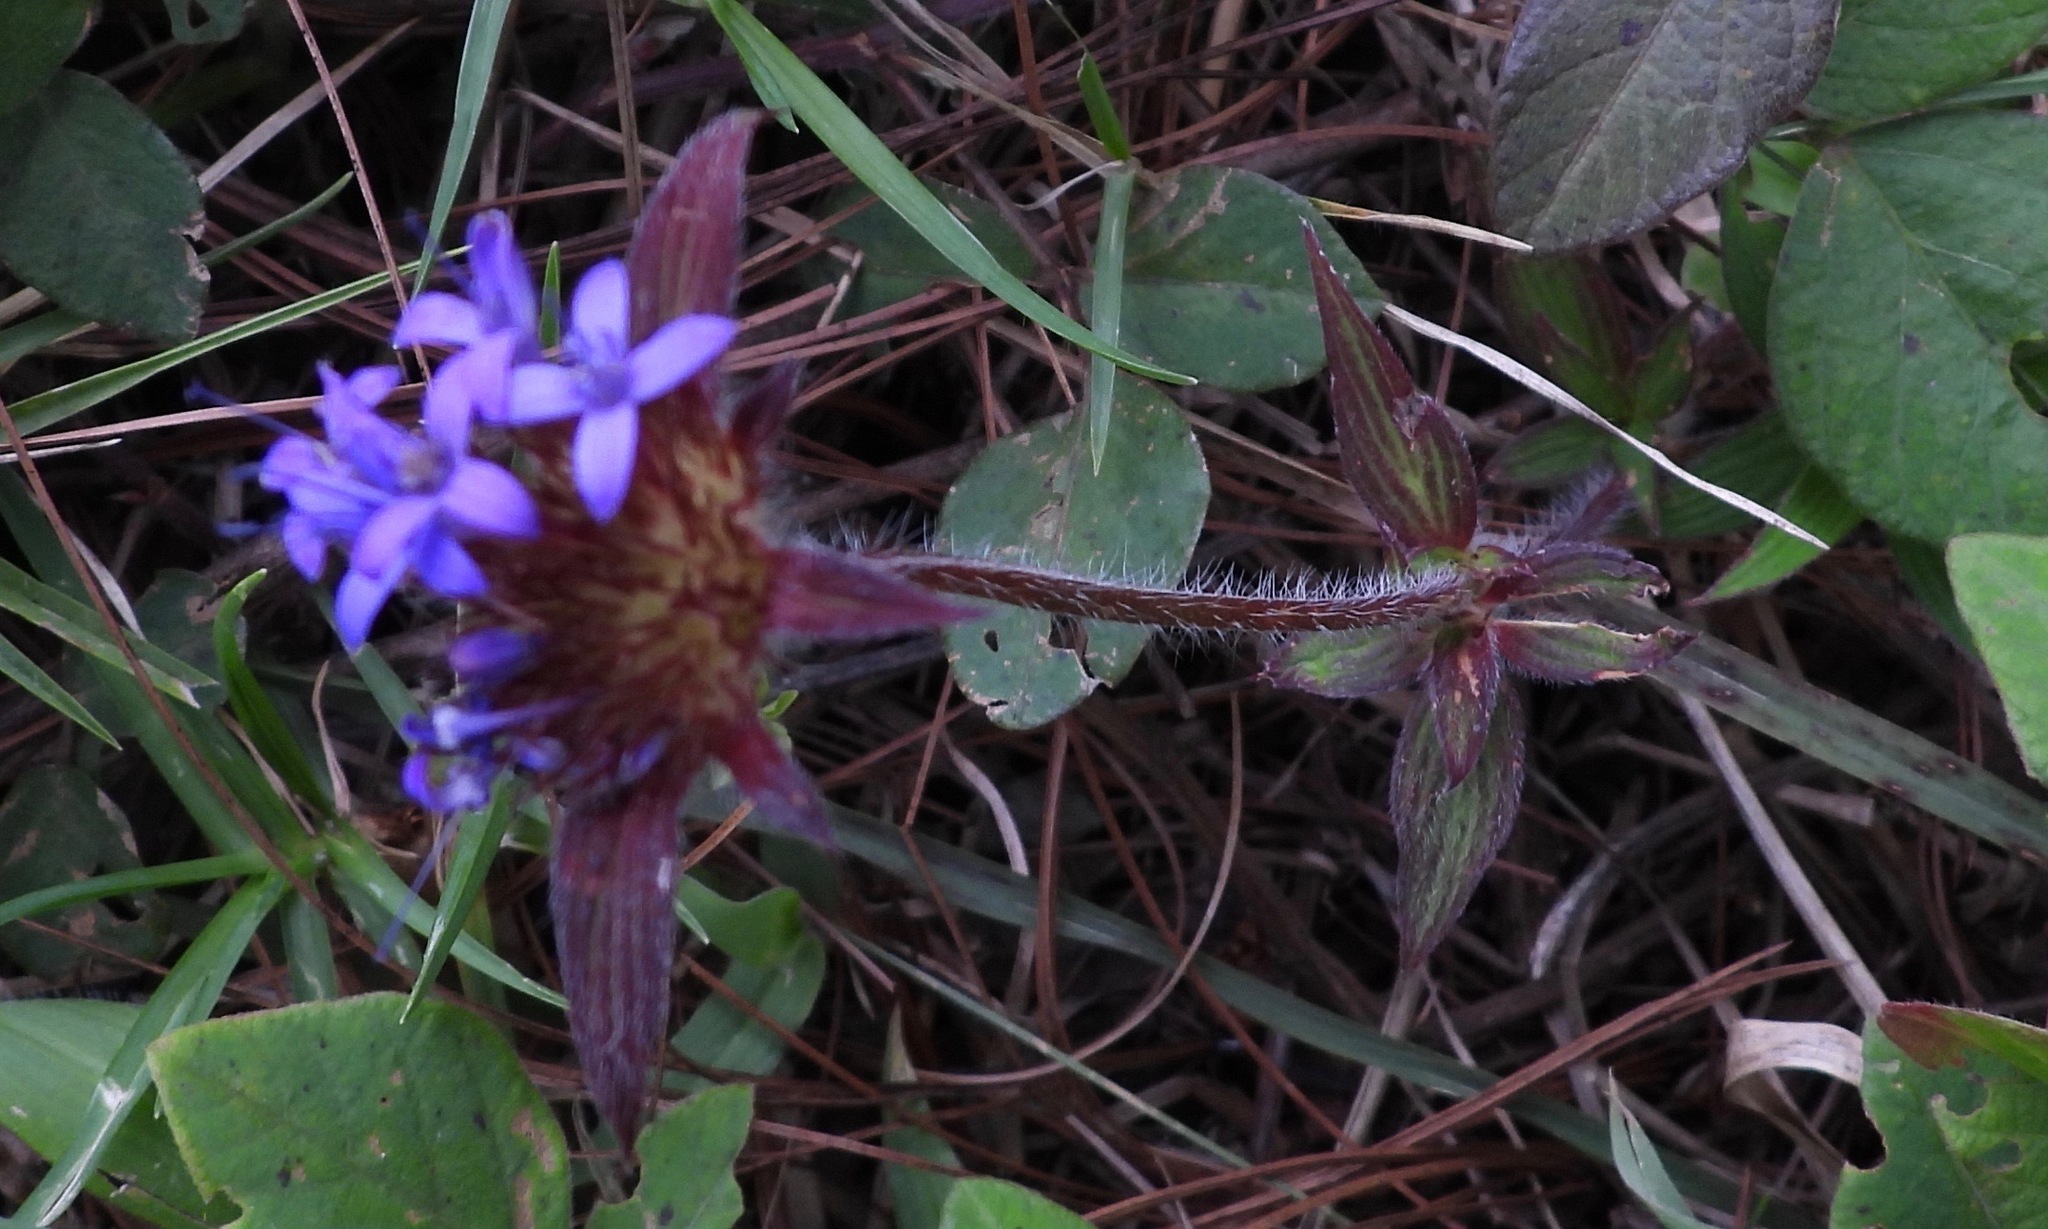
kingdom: Plantae
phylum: Tracheophyta
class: Magnoliopsida
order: Gentianales
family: Rubiaceae
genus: Crusea
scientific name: Crusea calocephala
